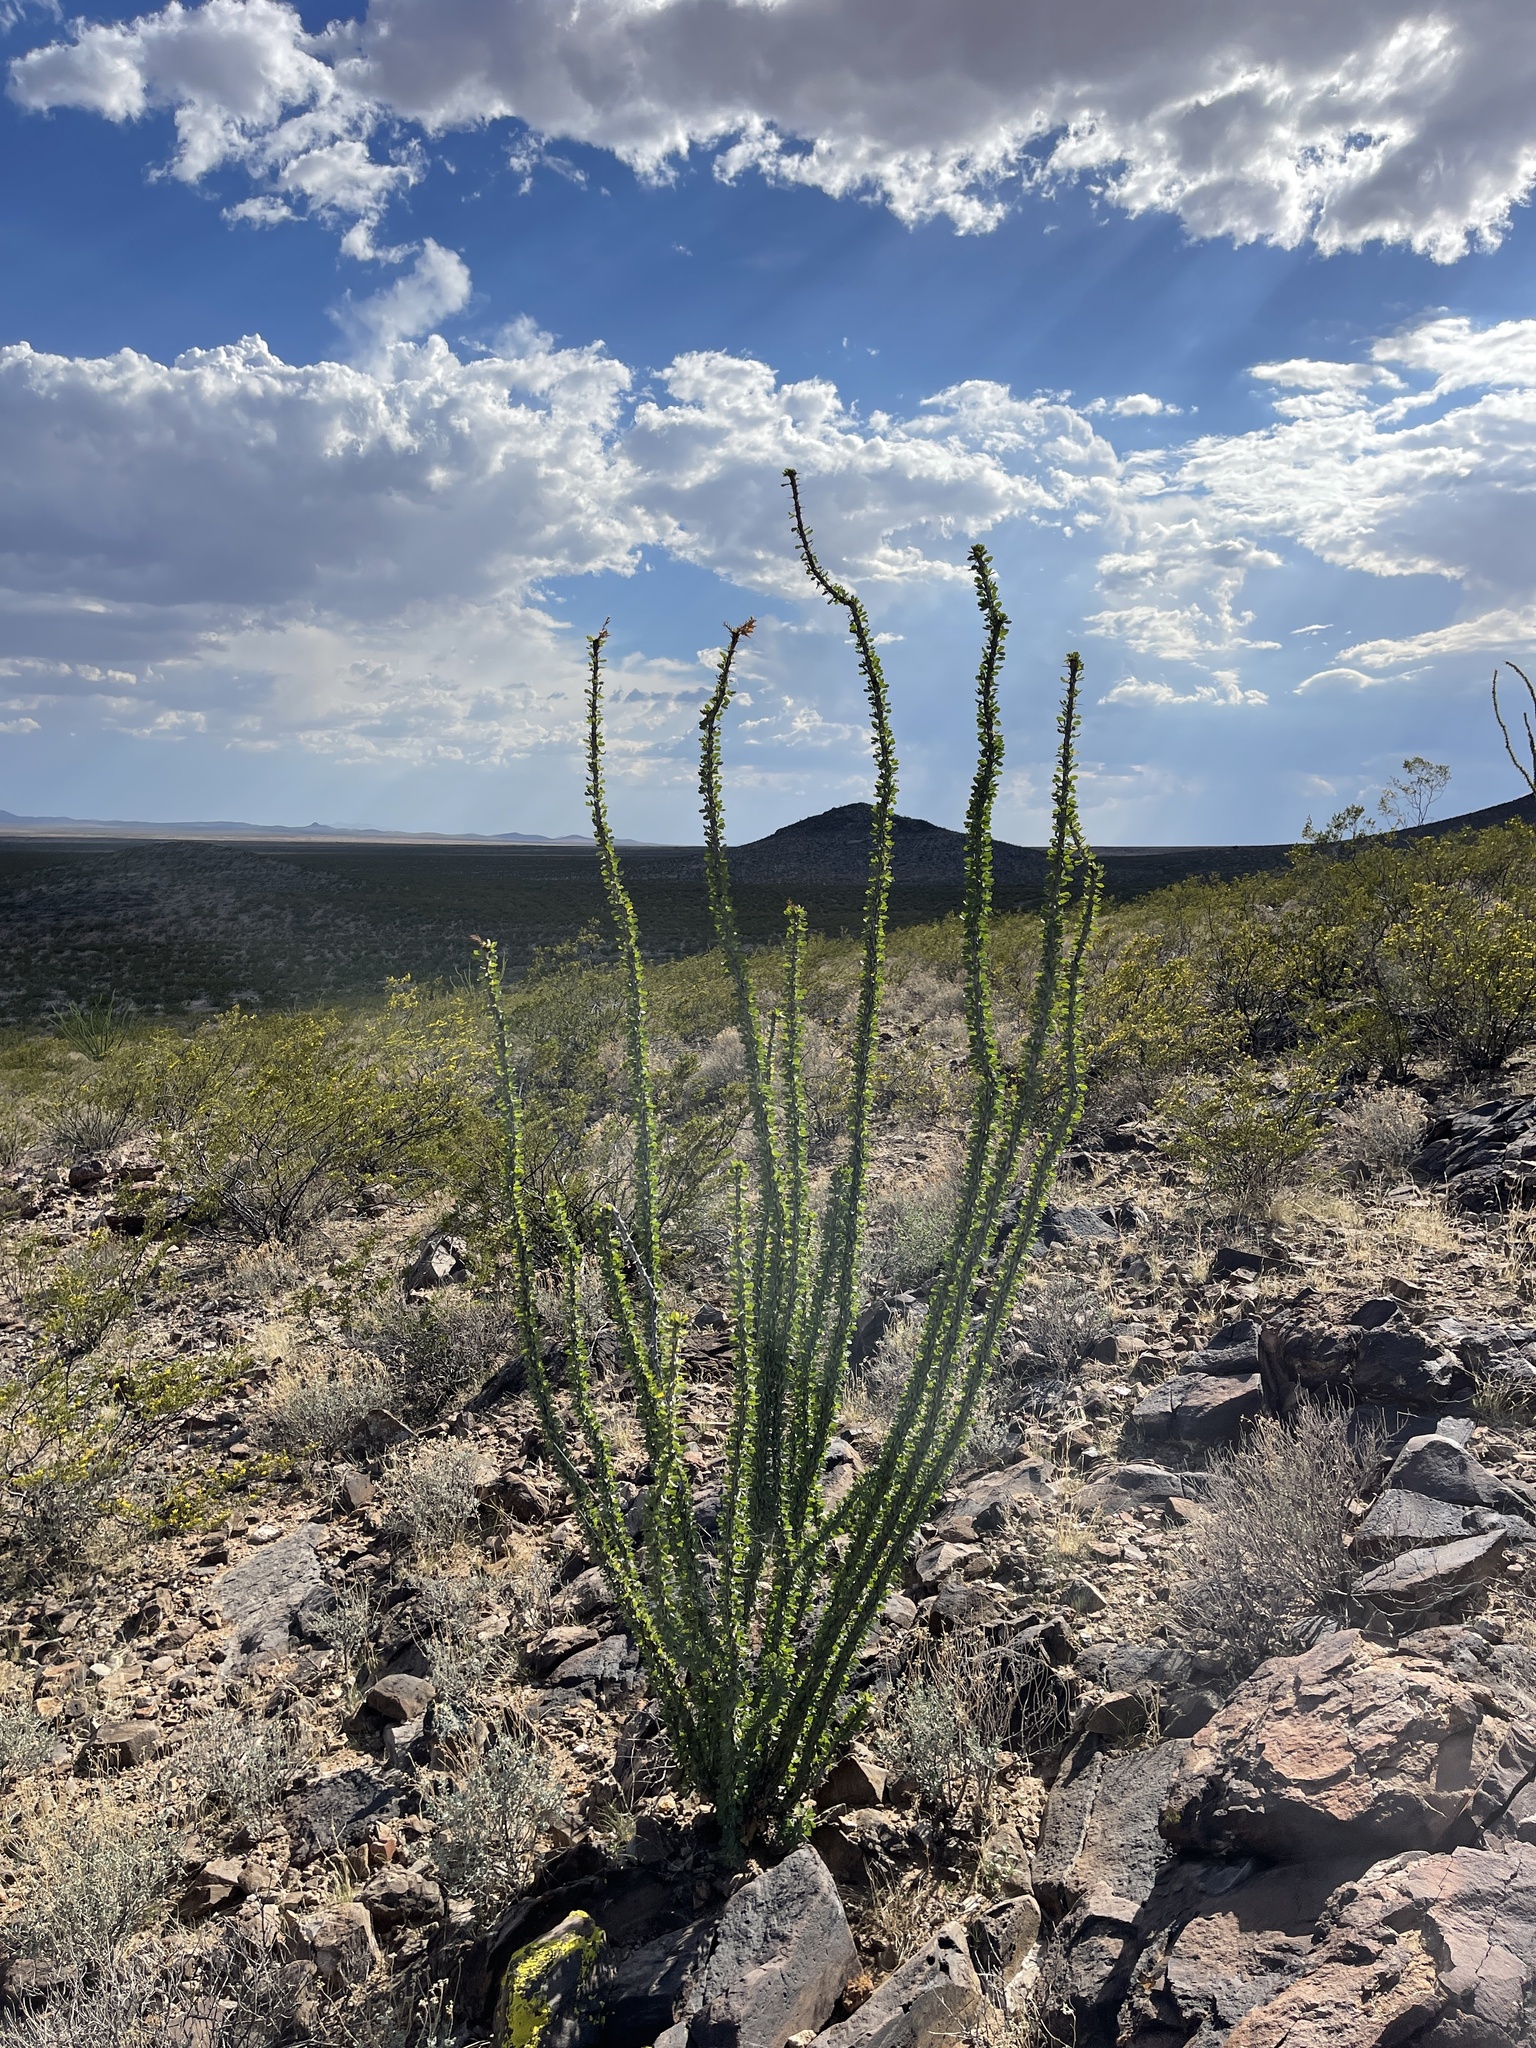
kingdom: Plantae
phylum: Tracheophyta
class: Magnoliopsida
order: Ericales
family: Fouquieriaceae
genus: Fouquieria
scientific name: Fouquieria splendens
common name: Vine-cactus
